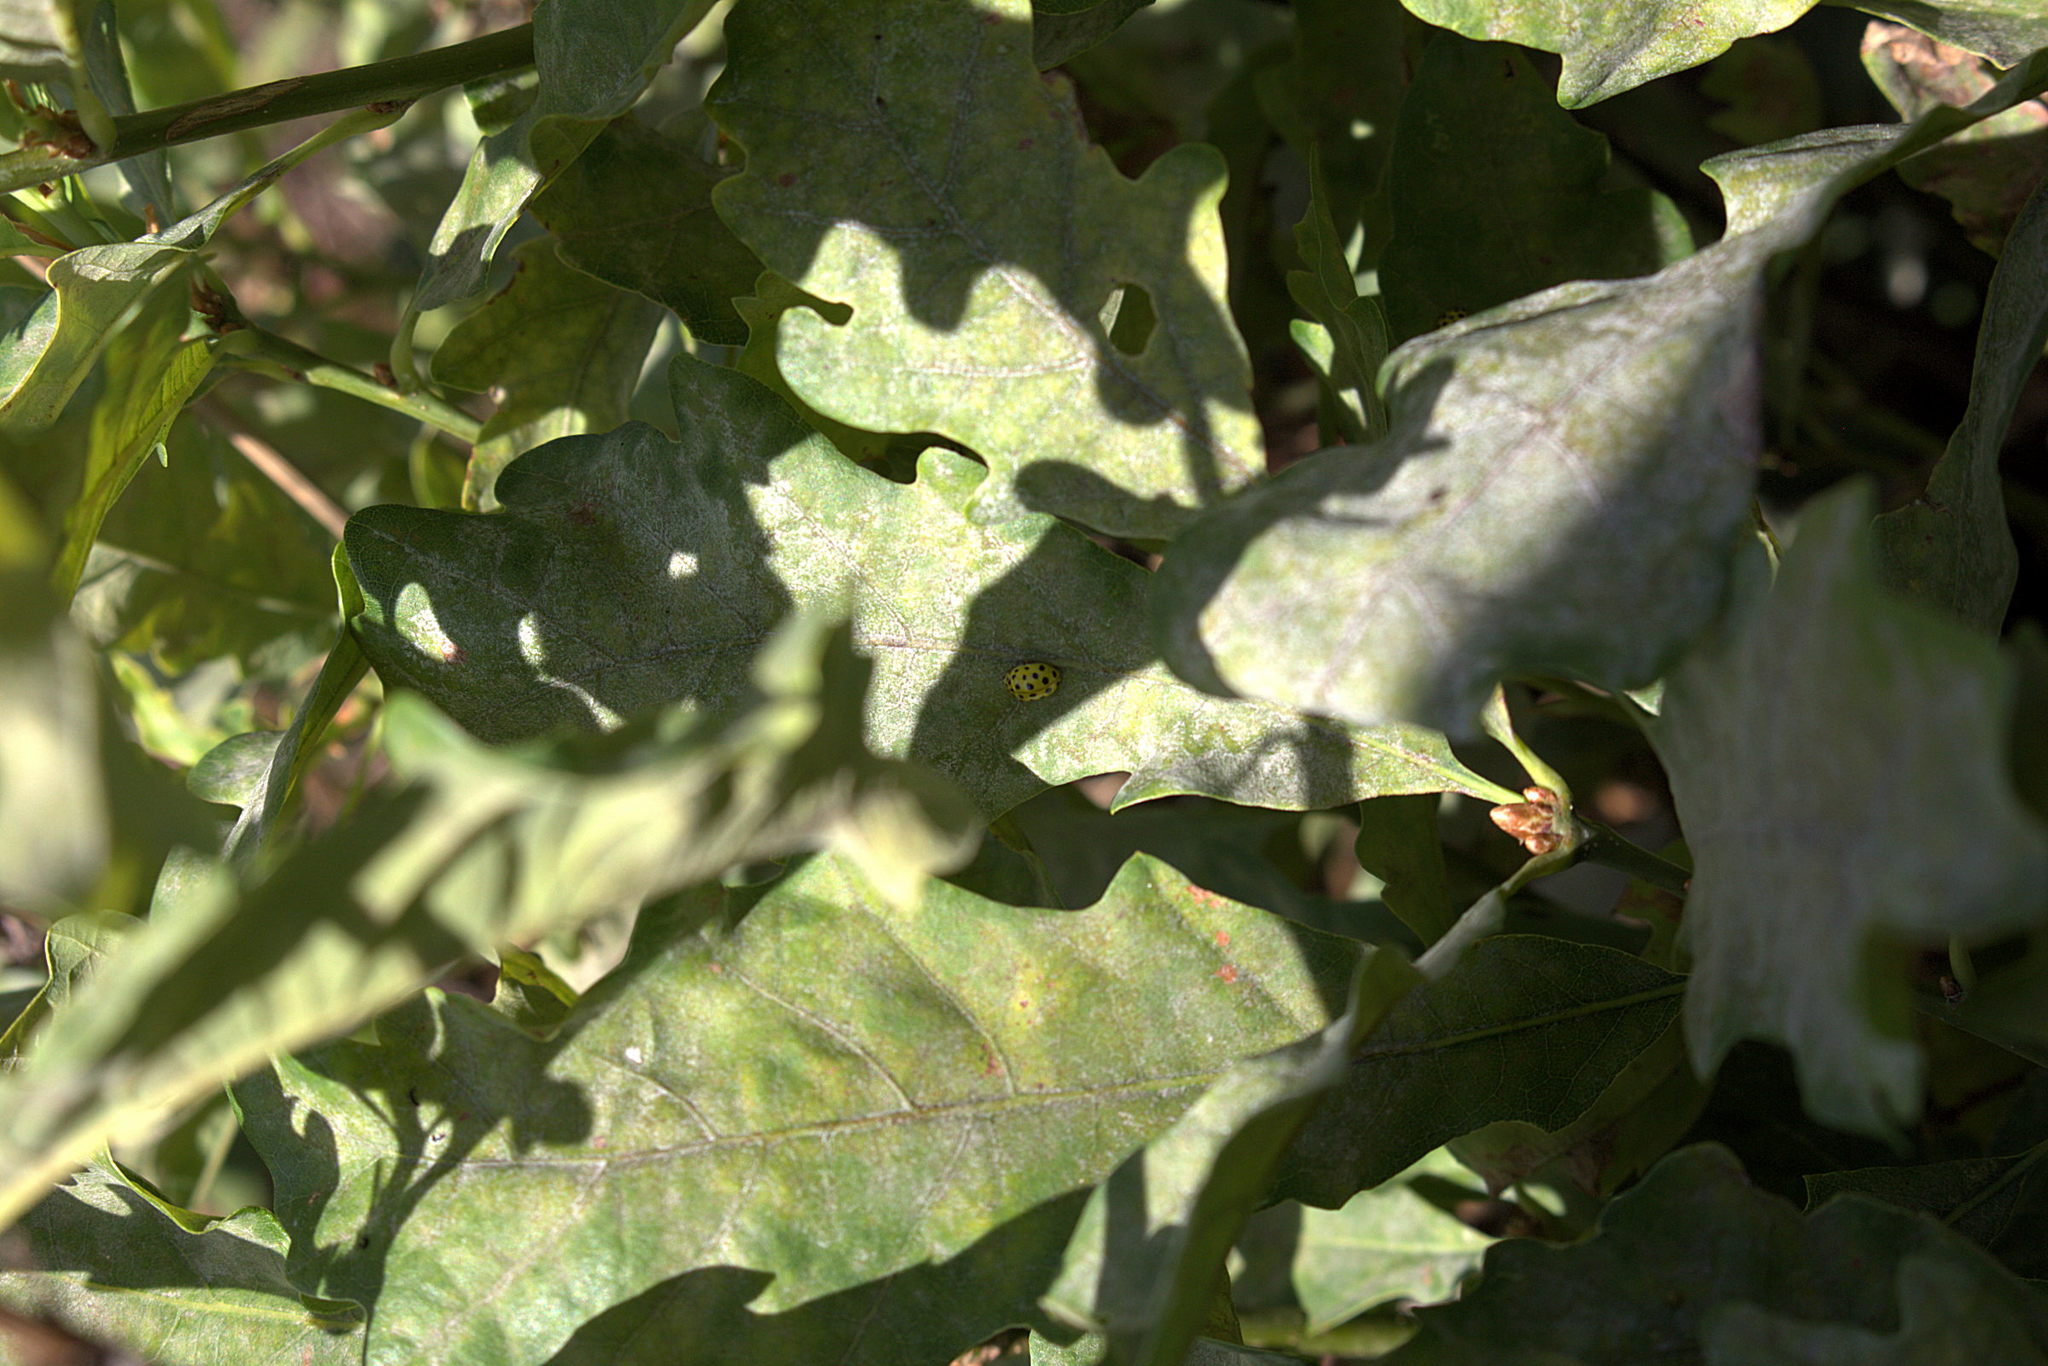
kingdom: Animalia
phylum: Arthropoda
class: Insecta
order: Coleoptera
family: Coccinellidae
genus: Psyllobora
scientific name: Psyllobora vigintiduopunctata
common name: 22-spot ladybird
